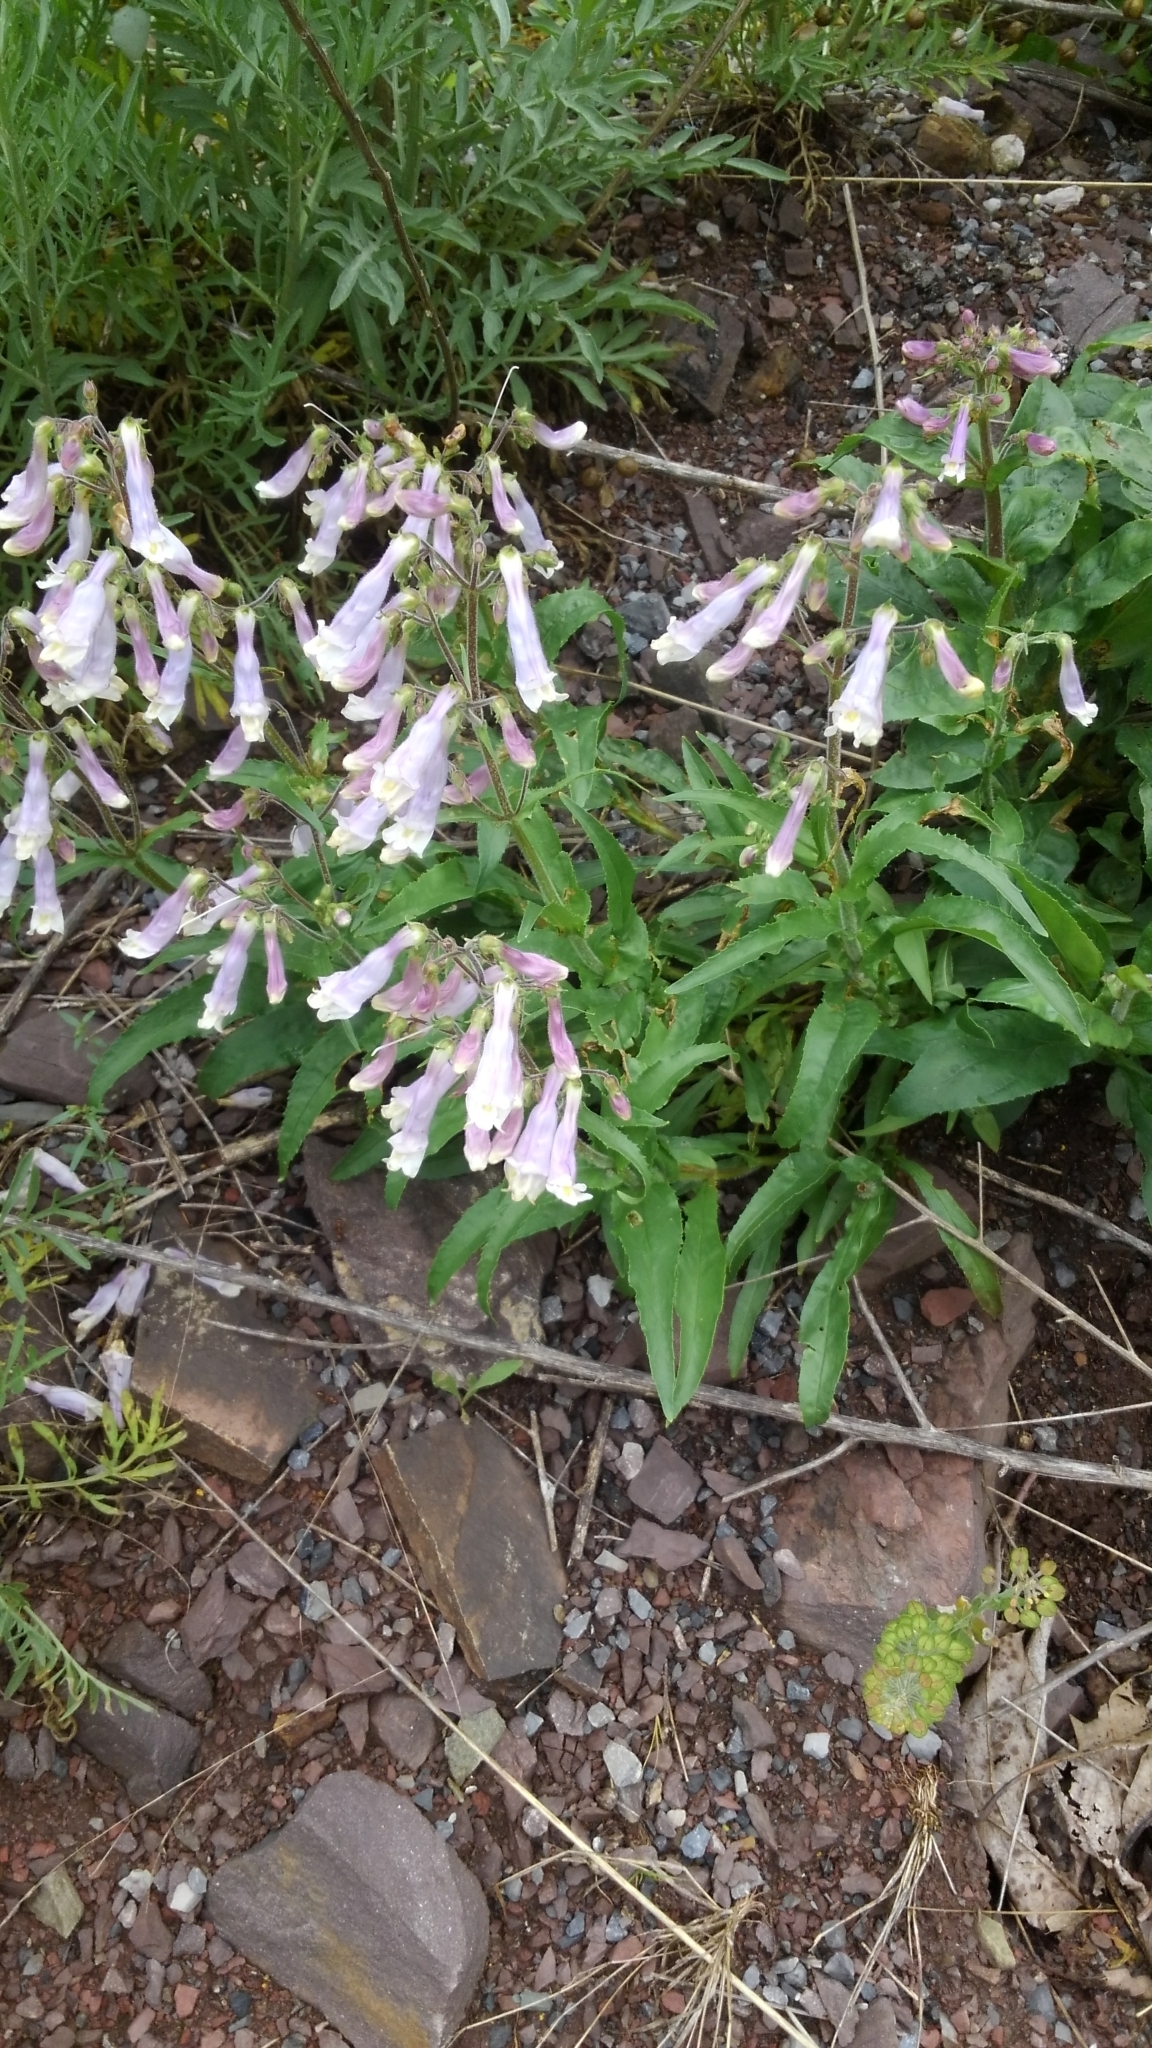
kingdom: Plantae
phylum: Tracheophyta
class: Magnoliopsida
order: Lamiales
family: Plantaginaceae
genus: Penstemon
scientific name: Penstemon hirsutus
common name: Hairy beardtongue
